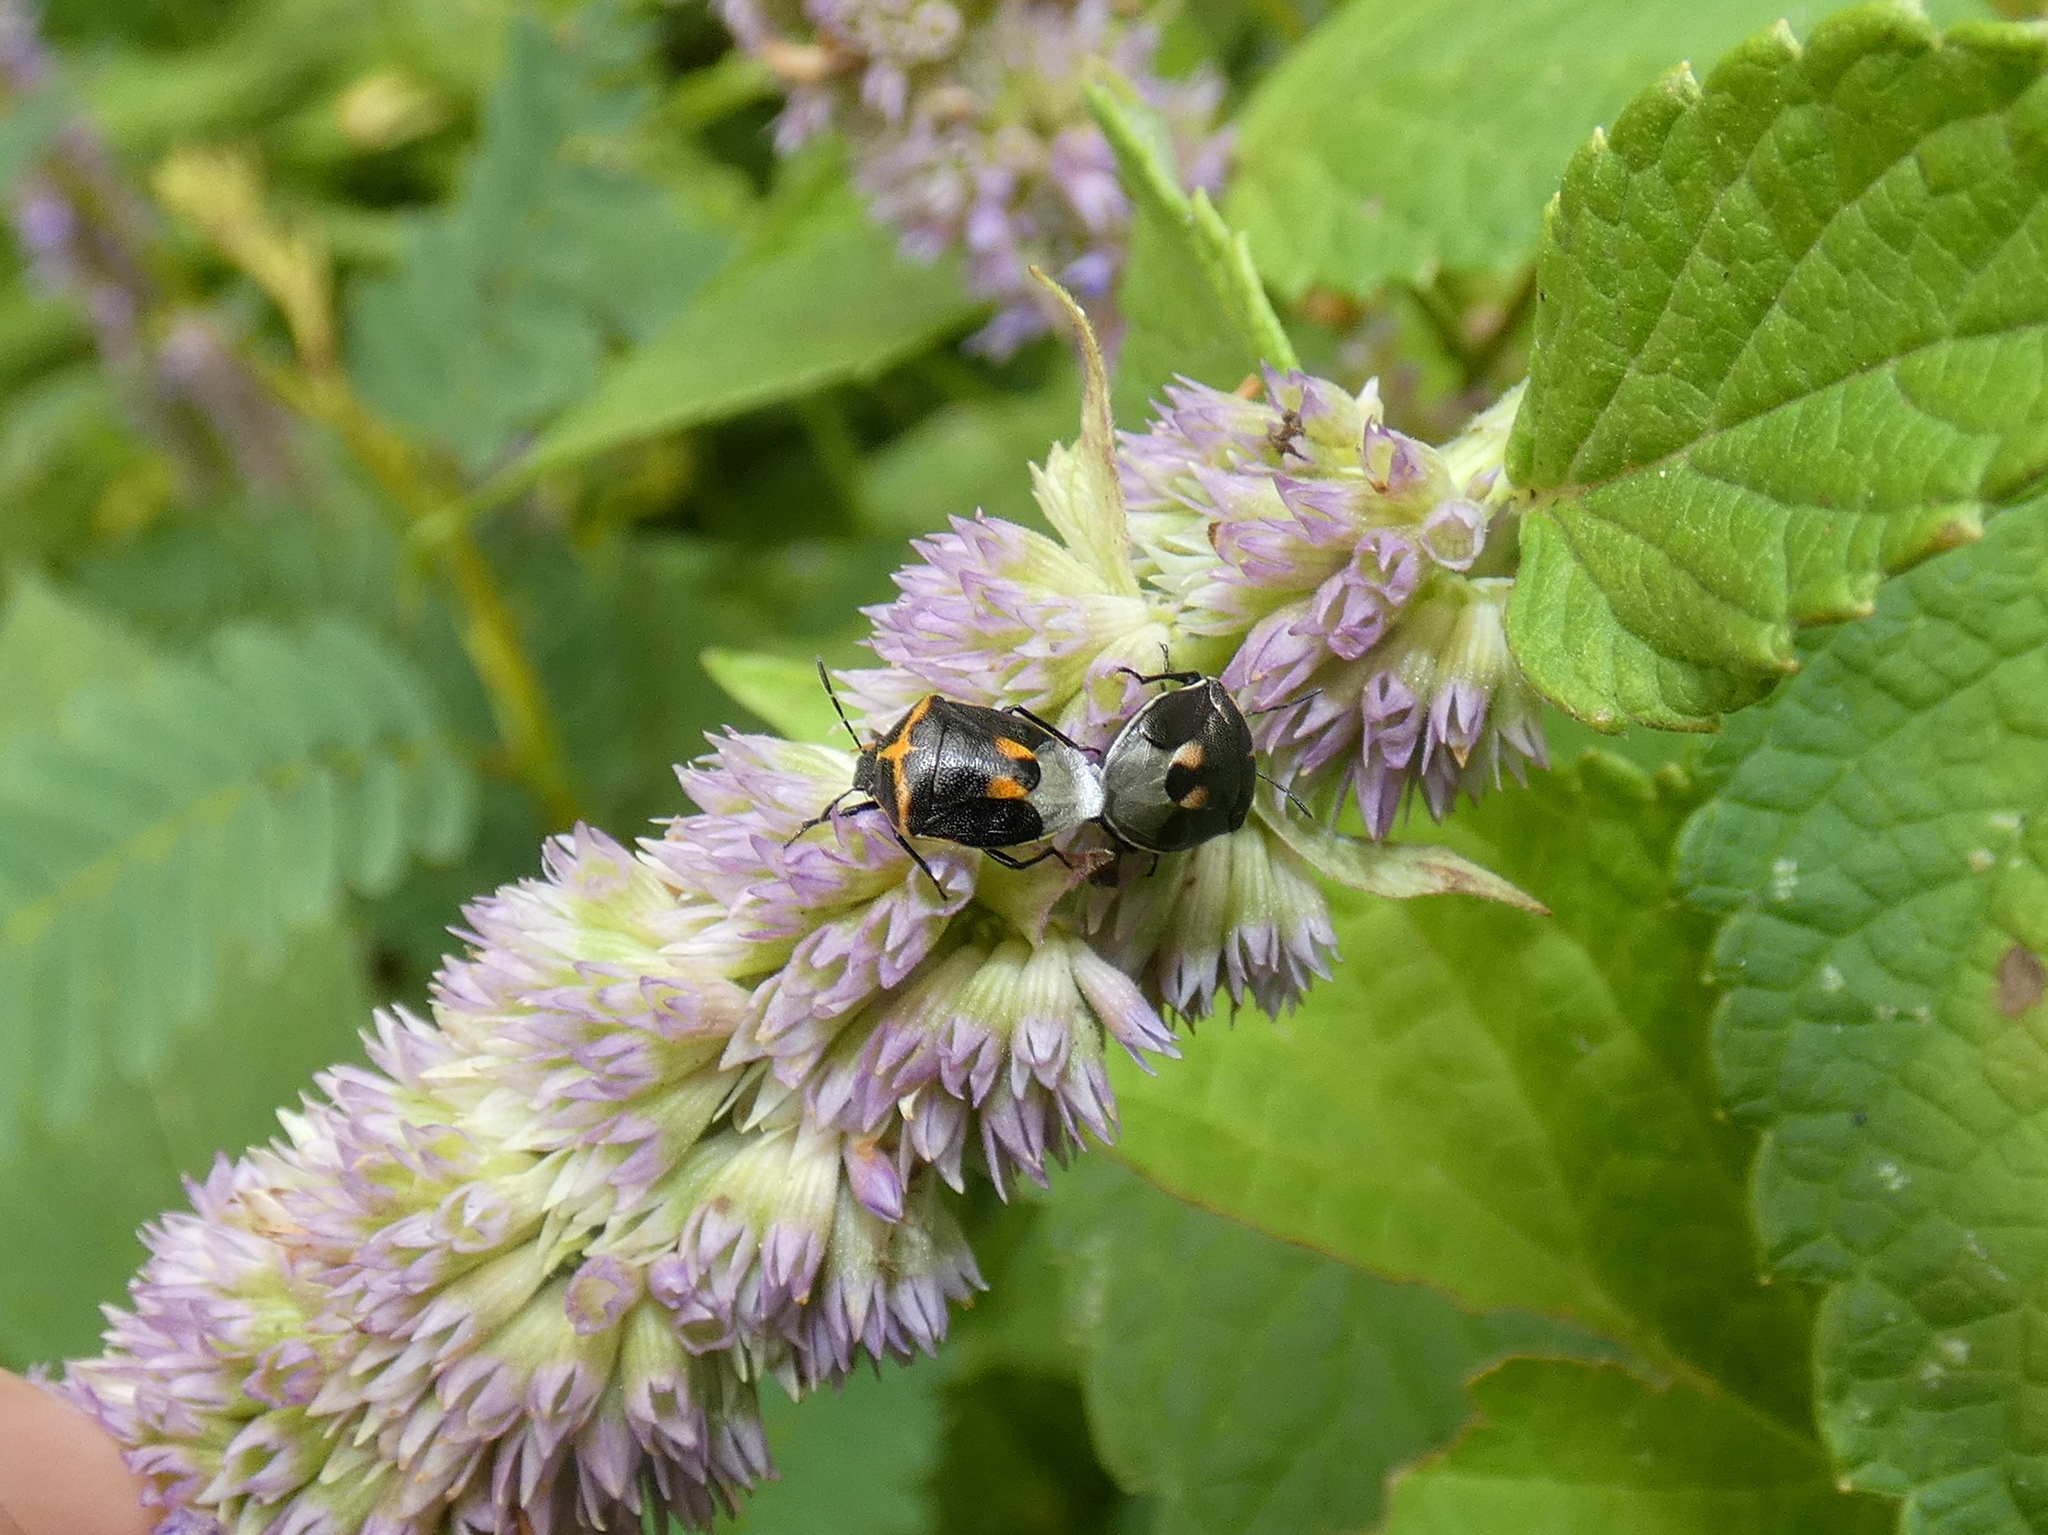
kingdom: Animalia
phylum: Arthropoda
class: Insecta
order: Hemiptera
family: Pentatomidae
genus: Cosmopepla
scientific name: Cosmopepla lintneriana
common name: Twice-stabbed stink bug
